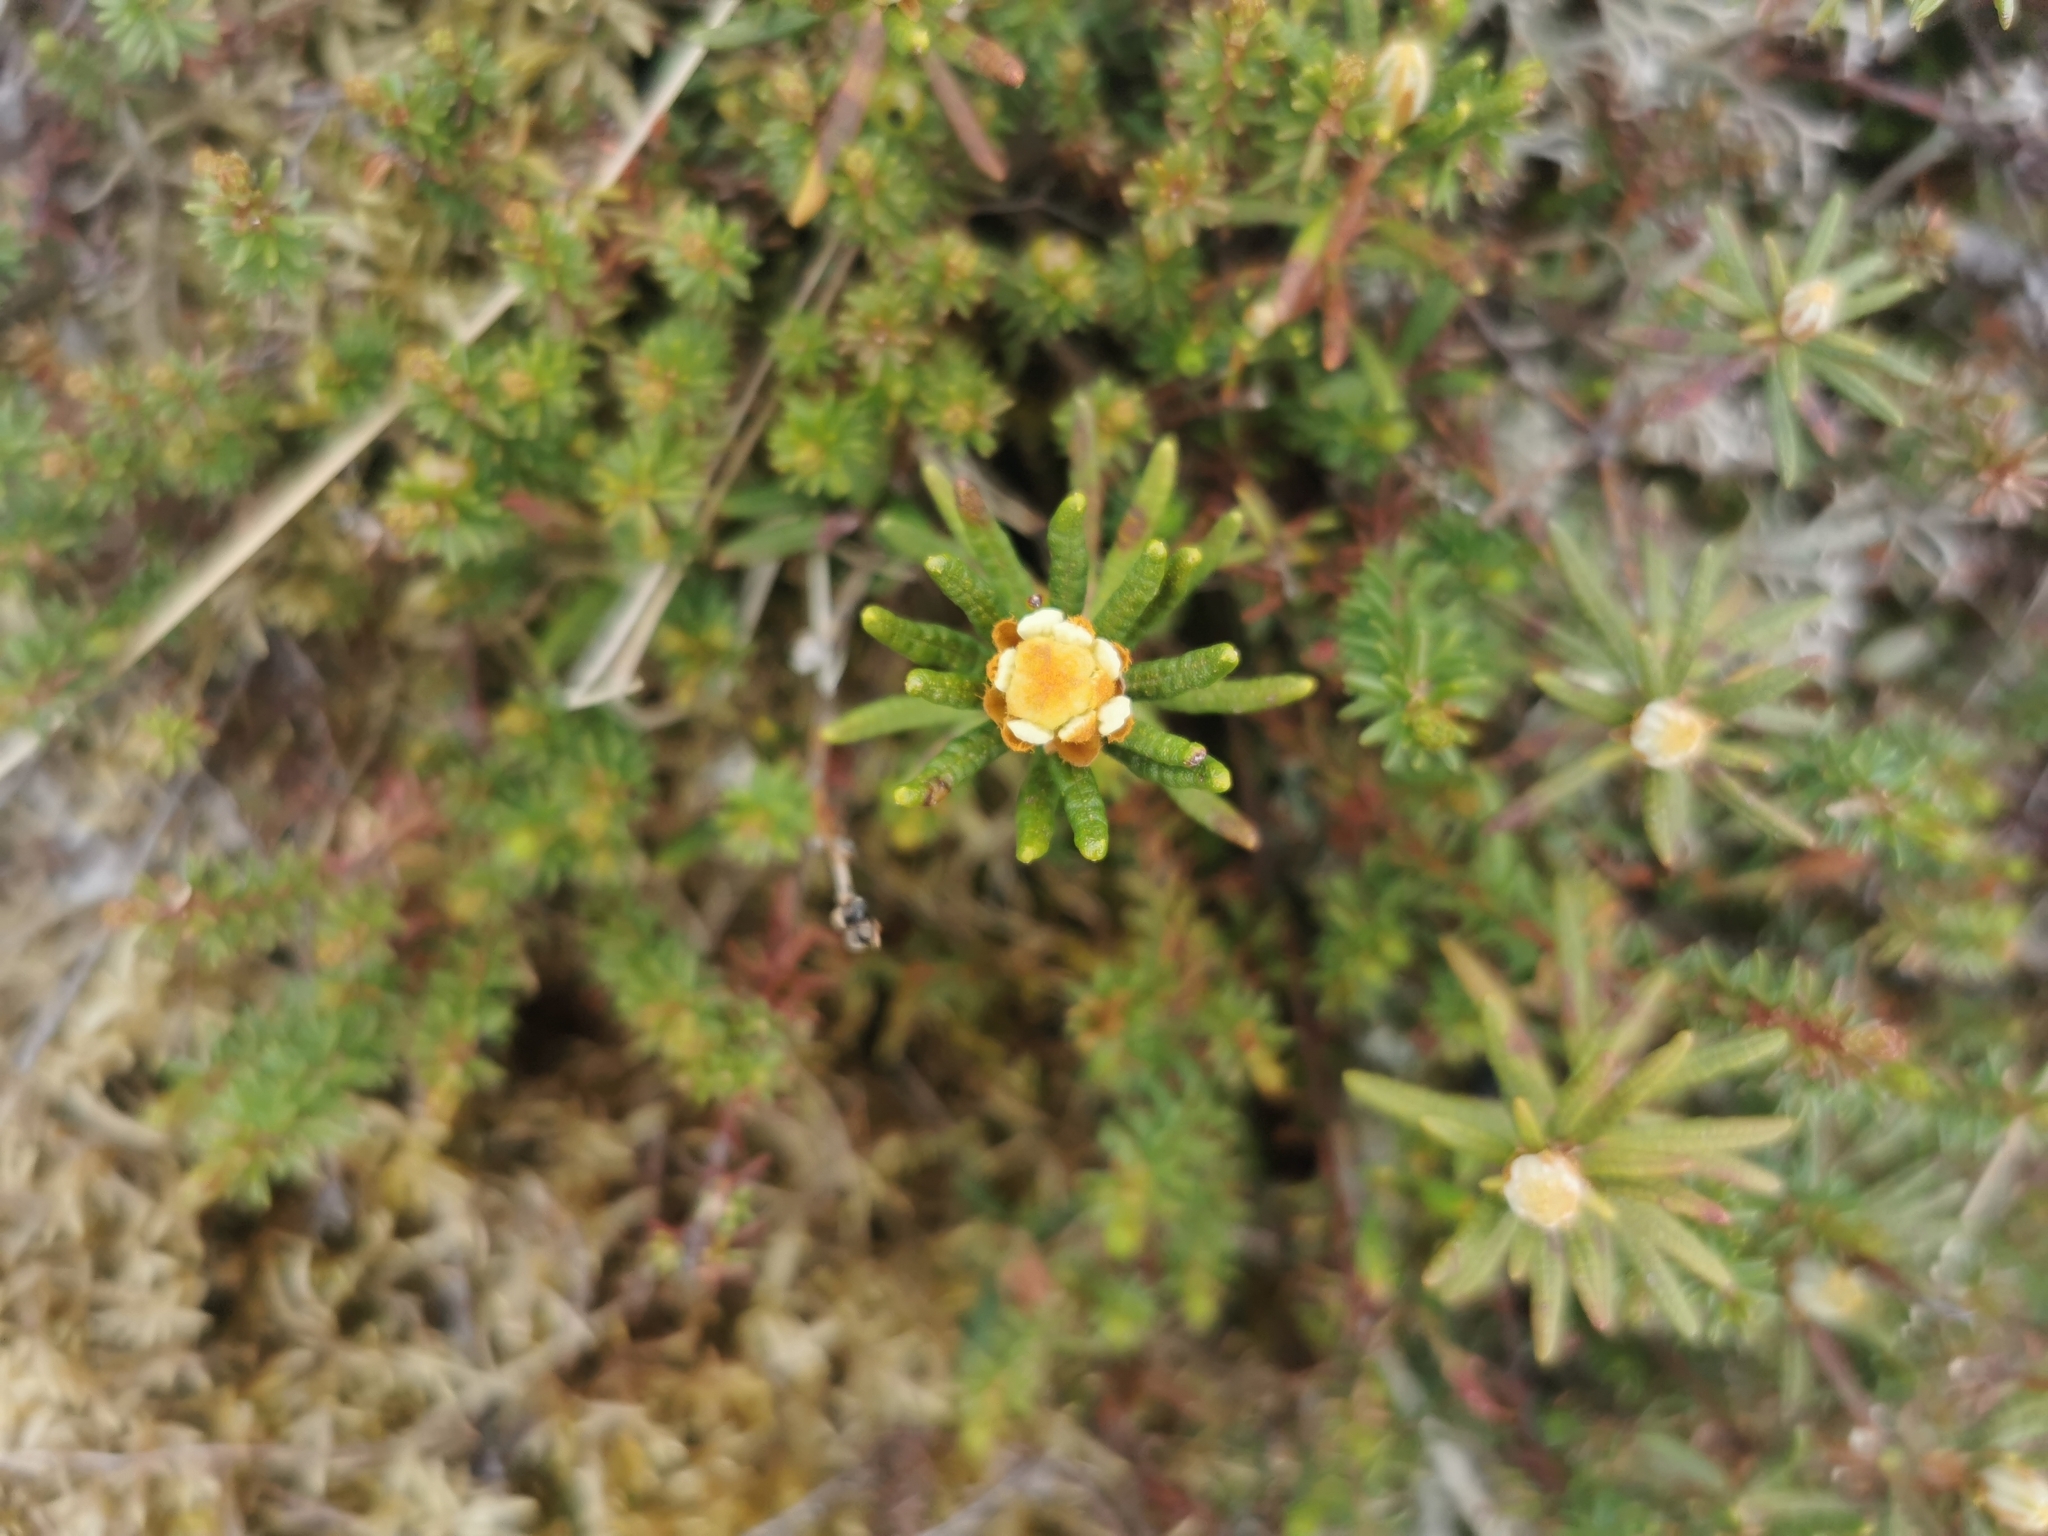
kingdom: Plantae
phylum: Tracheophyta
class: Magnoliopsida
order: Ericales
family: Ericaceae
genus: Rhododendron
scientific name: Rhododendron tomentosum
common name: Marsh labrador tea
